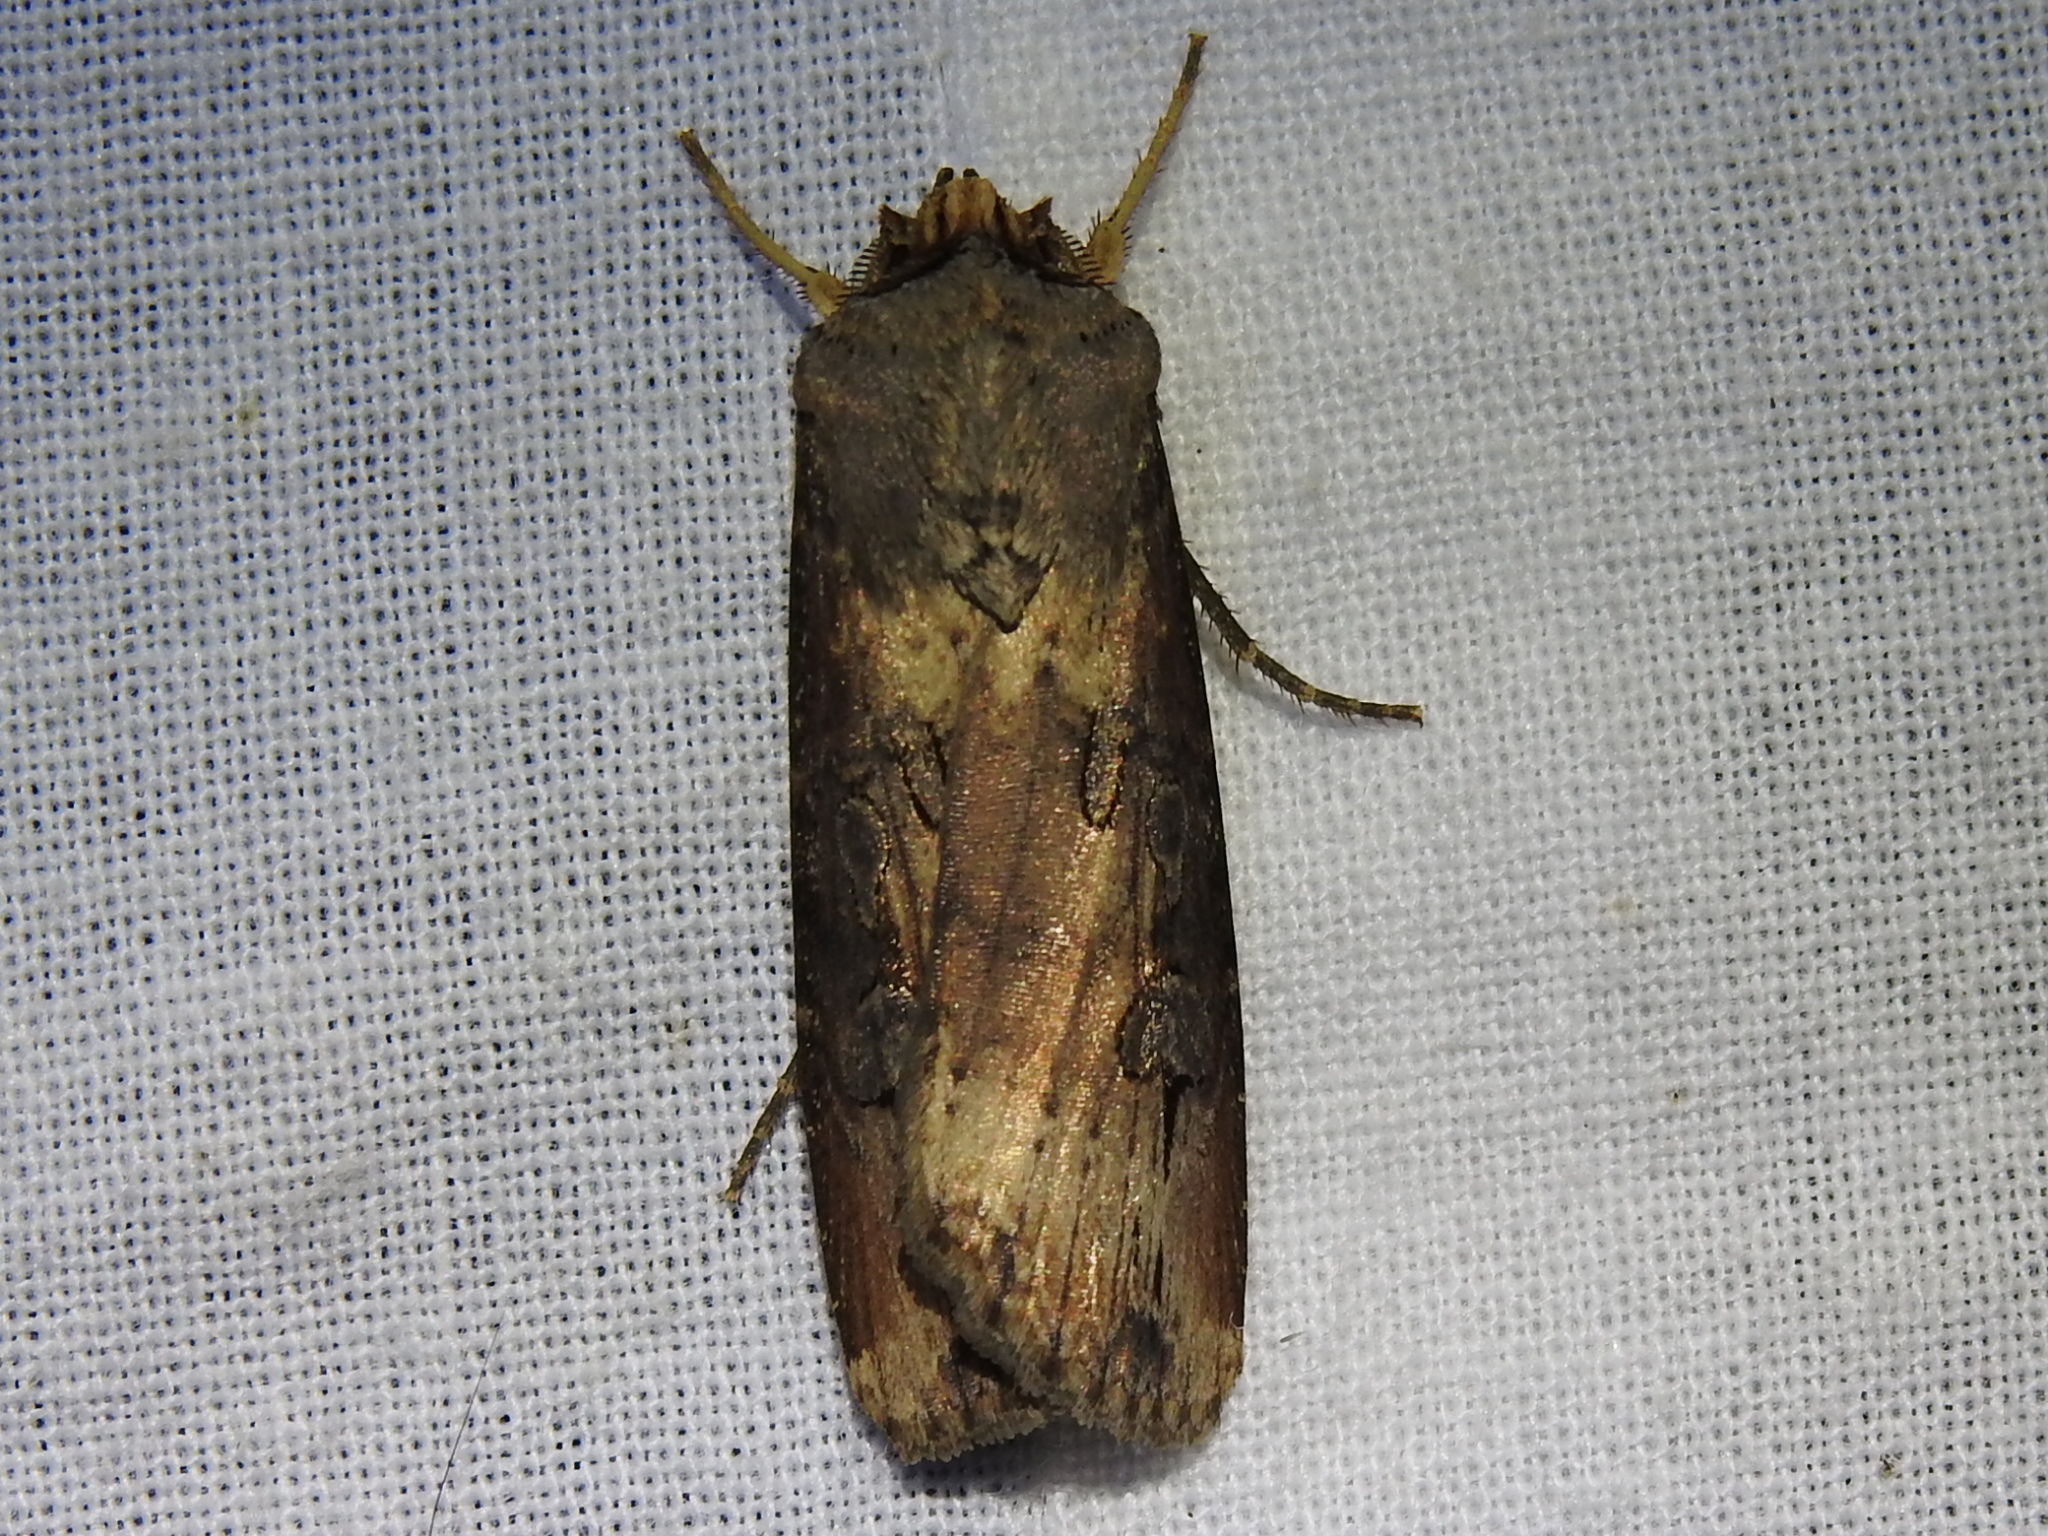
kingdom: Animalia
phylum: Arthropoda
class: Insecta
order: Lepidoptera
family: Noctuidae
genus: Agrotis
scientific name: Agrotis ipsilon
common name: Dark sword-grass
